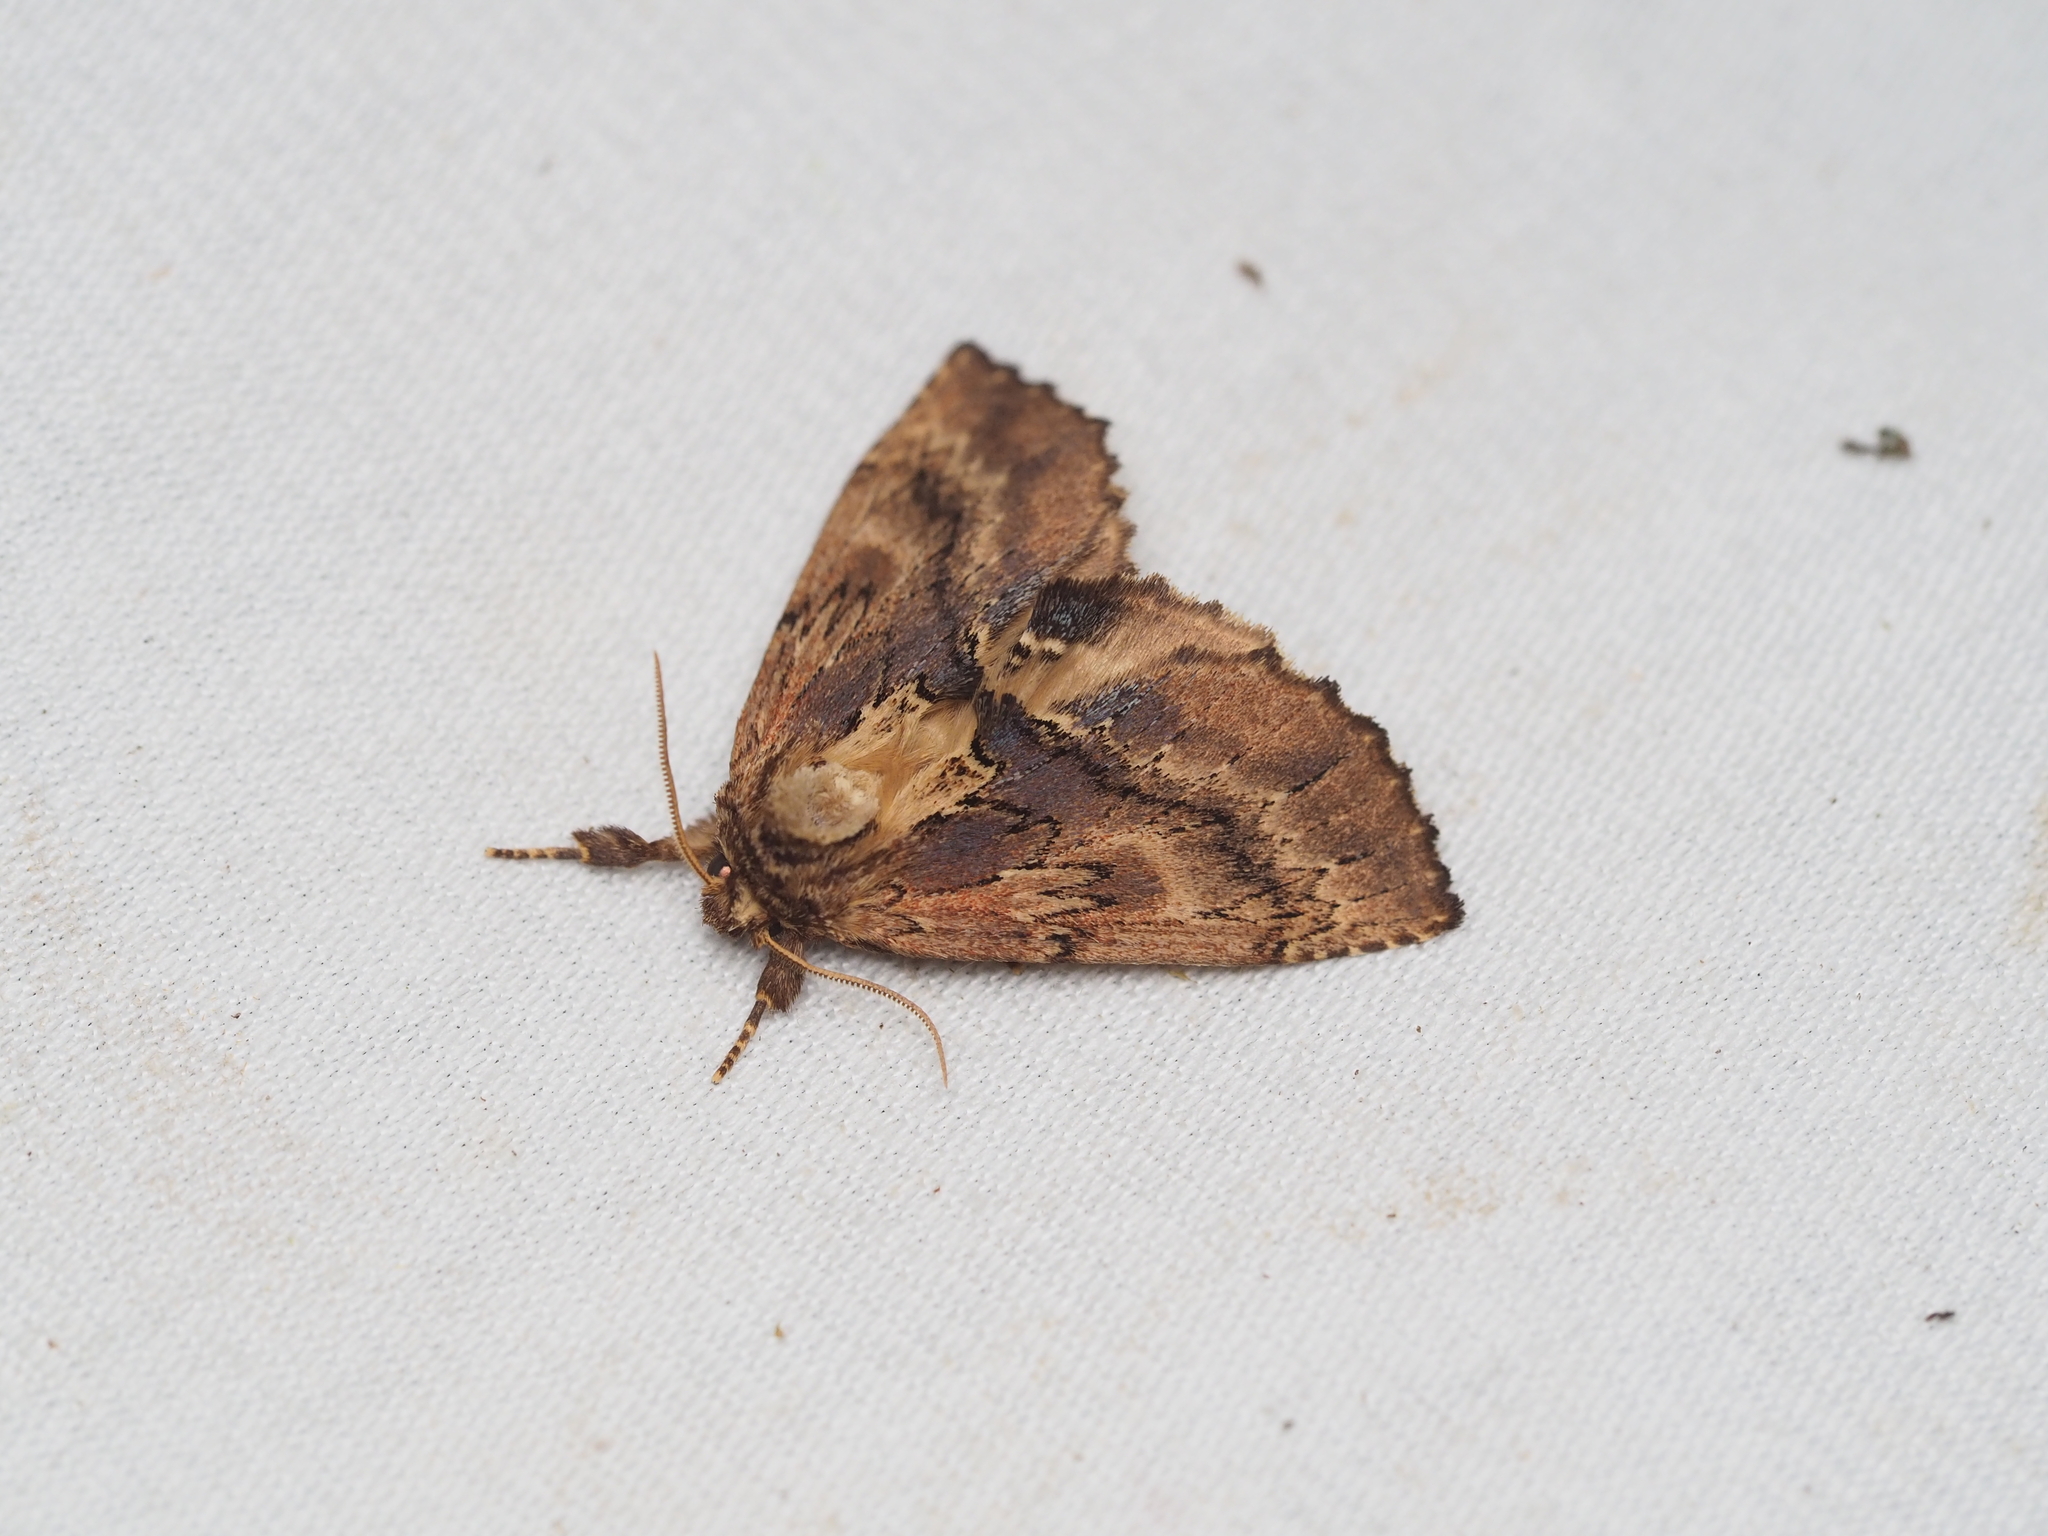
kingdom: Animalia
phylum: Arthropoda
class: Insecta
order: Lepidoptera
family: Notodontidae
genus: Ptilodon
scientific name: Ptilodon capucina
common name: Coxcomb prominent
